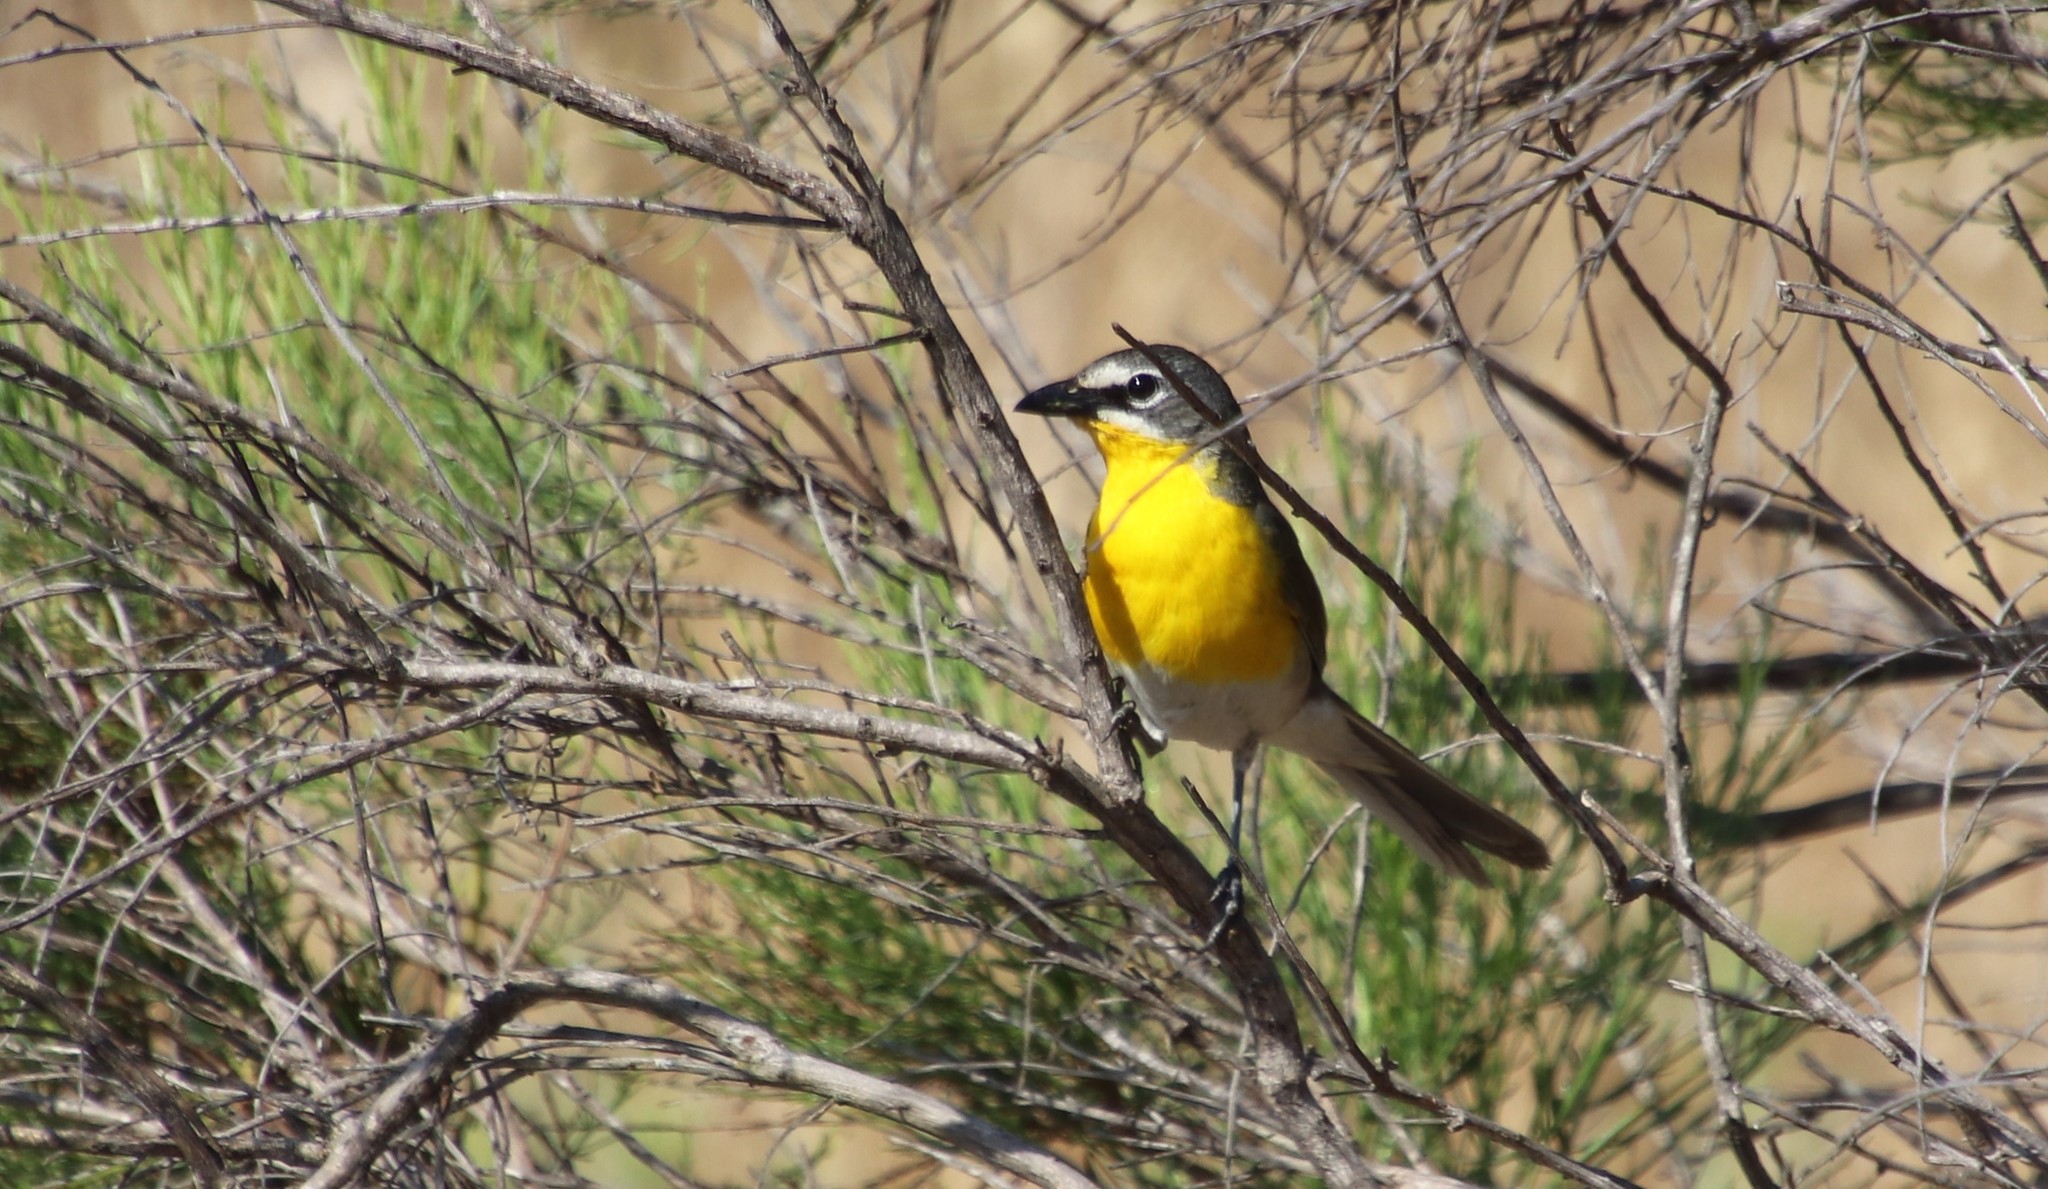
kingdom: Animalia
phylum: Chordata
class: Aves
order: Passeriformes
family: Parulidae
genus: Icteria
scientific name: Icteria virens
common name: Yellow-breasted chat
